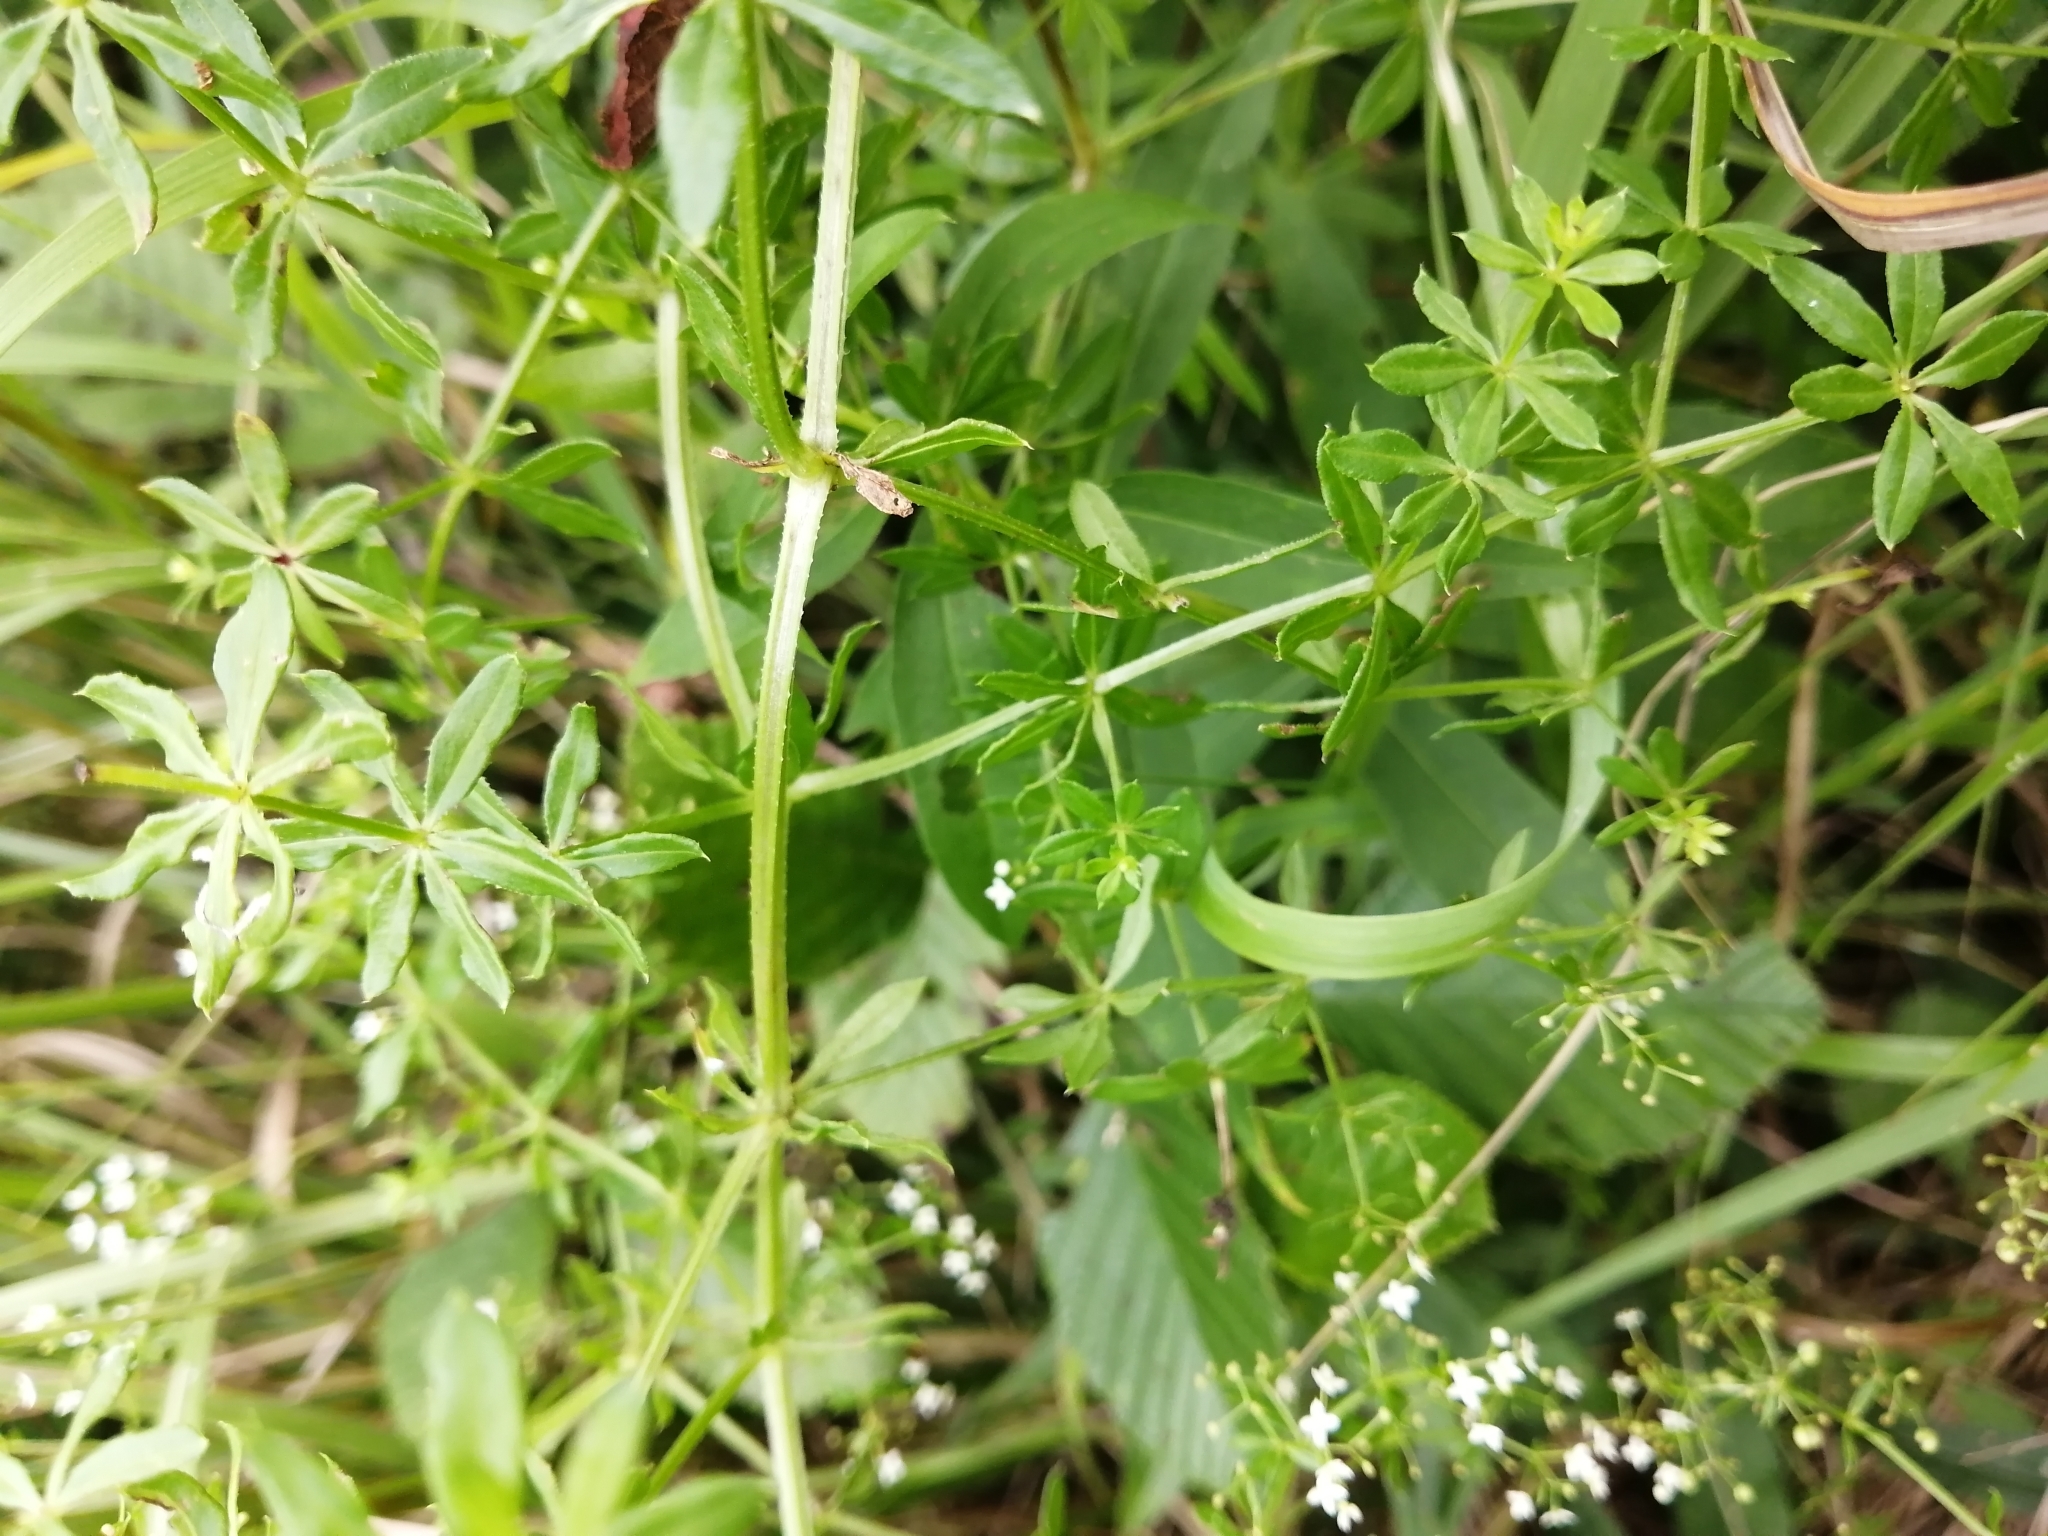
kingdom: Plantae
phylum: Tracheophyta
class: Magnoliopsida
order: Gentianales
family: Rubiaceae
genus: Galium
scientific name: Galium asprellum
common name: Rough bedstraw
